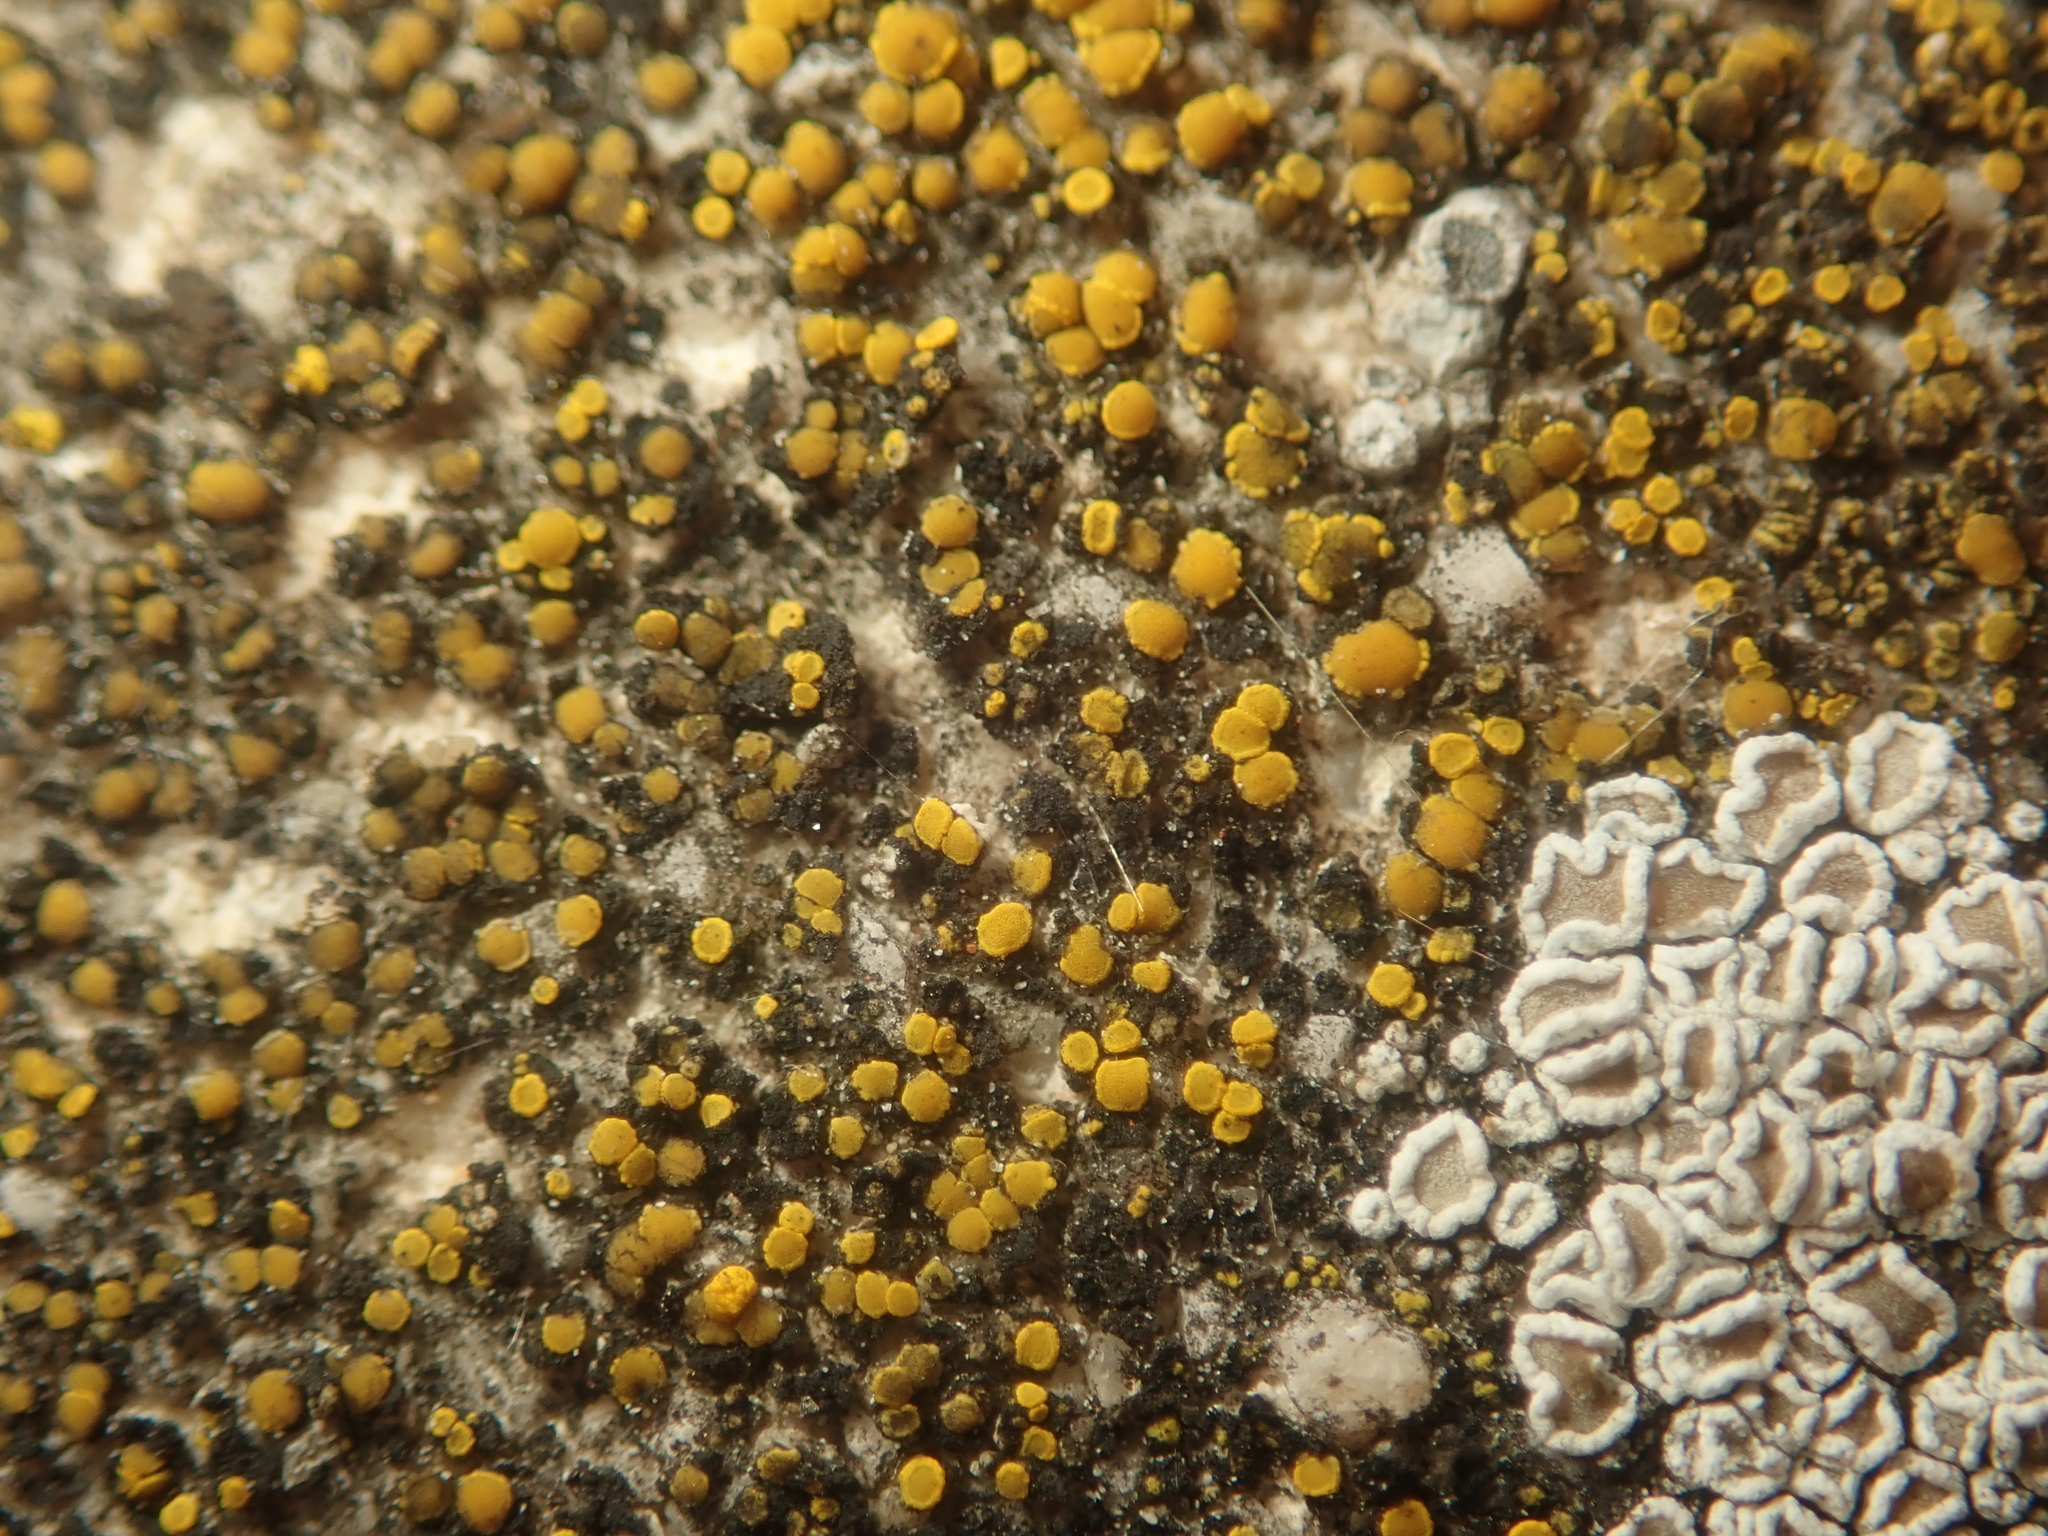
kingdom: Fungi
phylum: Ascomycota
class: Candelariomycetes
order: Candelariales
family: Candelariaceae
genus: Candelariella
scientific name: Candelariella aurella
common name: Hidden goldspeck lichen
